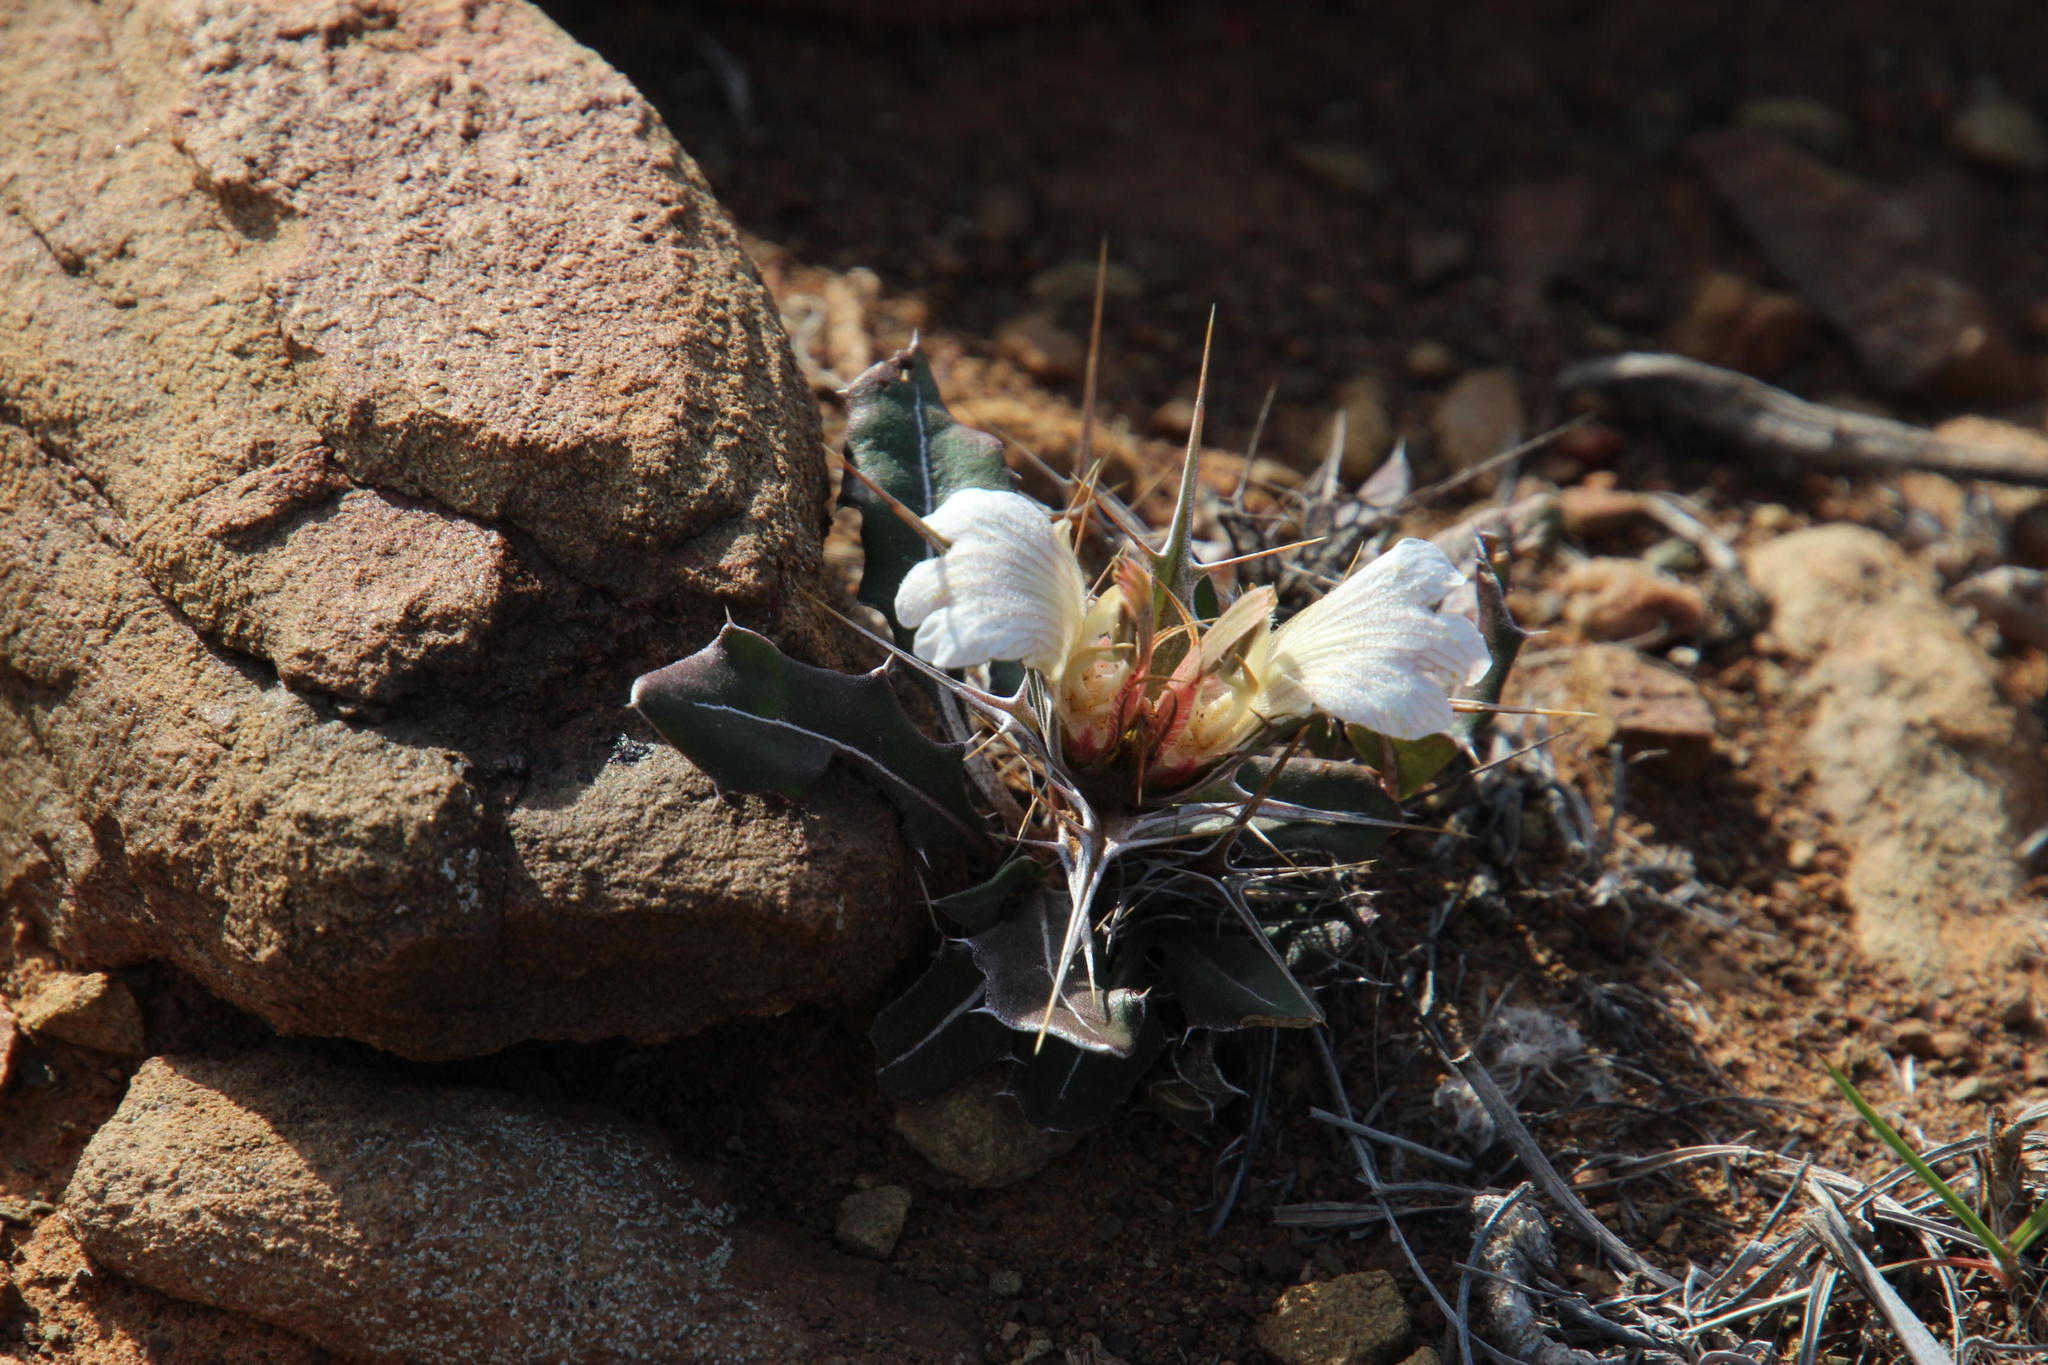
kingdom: Plantae
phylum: Tracheophyta
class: Magnoliopsida
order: Lamiales
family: Acanthaceae
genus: Blepharis
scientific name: Blepharis mitrata
